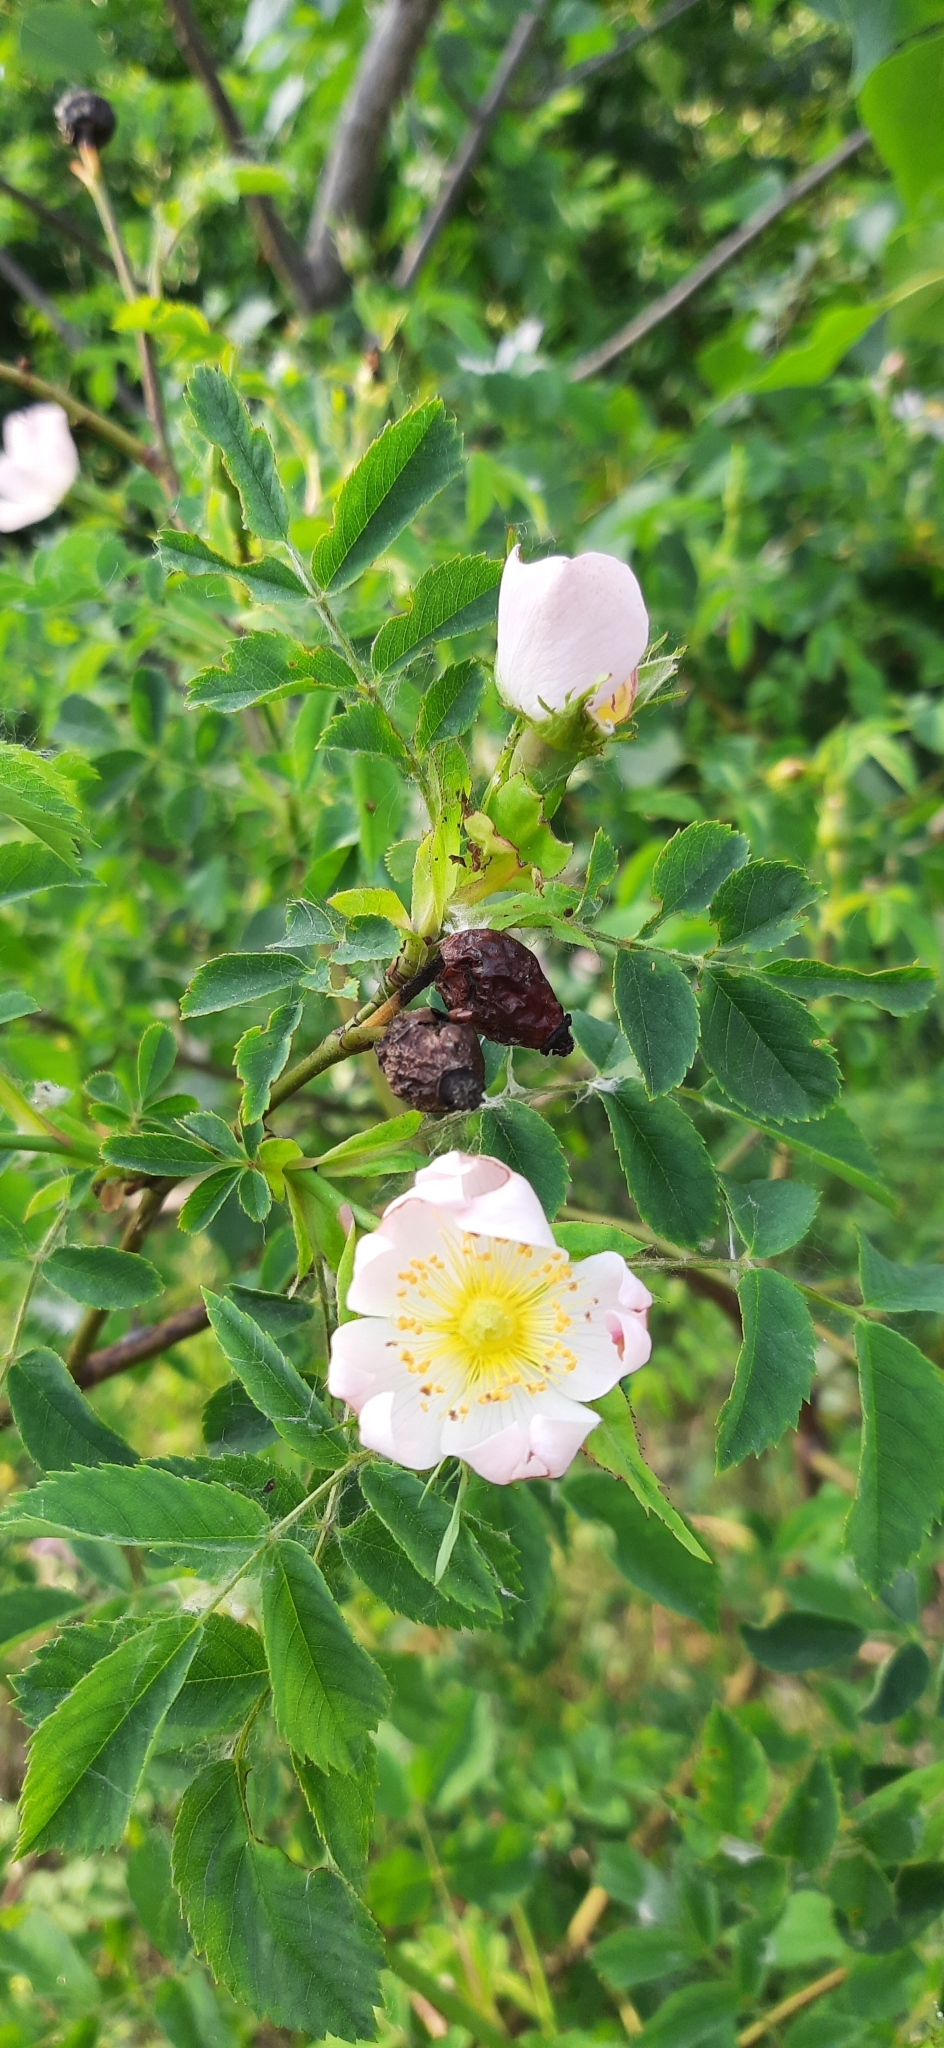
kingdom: Plantae
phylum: Tracheophyta
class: Magnoliopsida
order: Rosales
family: Rosaceae
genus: Rosa
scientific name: Rosa canina
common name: Dog rose
